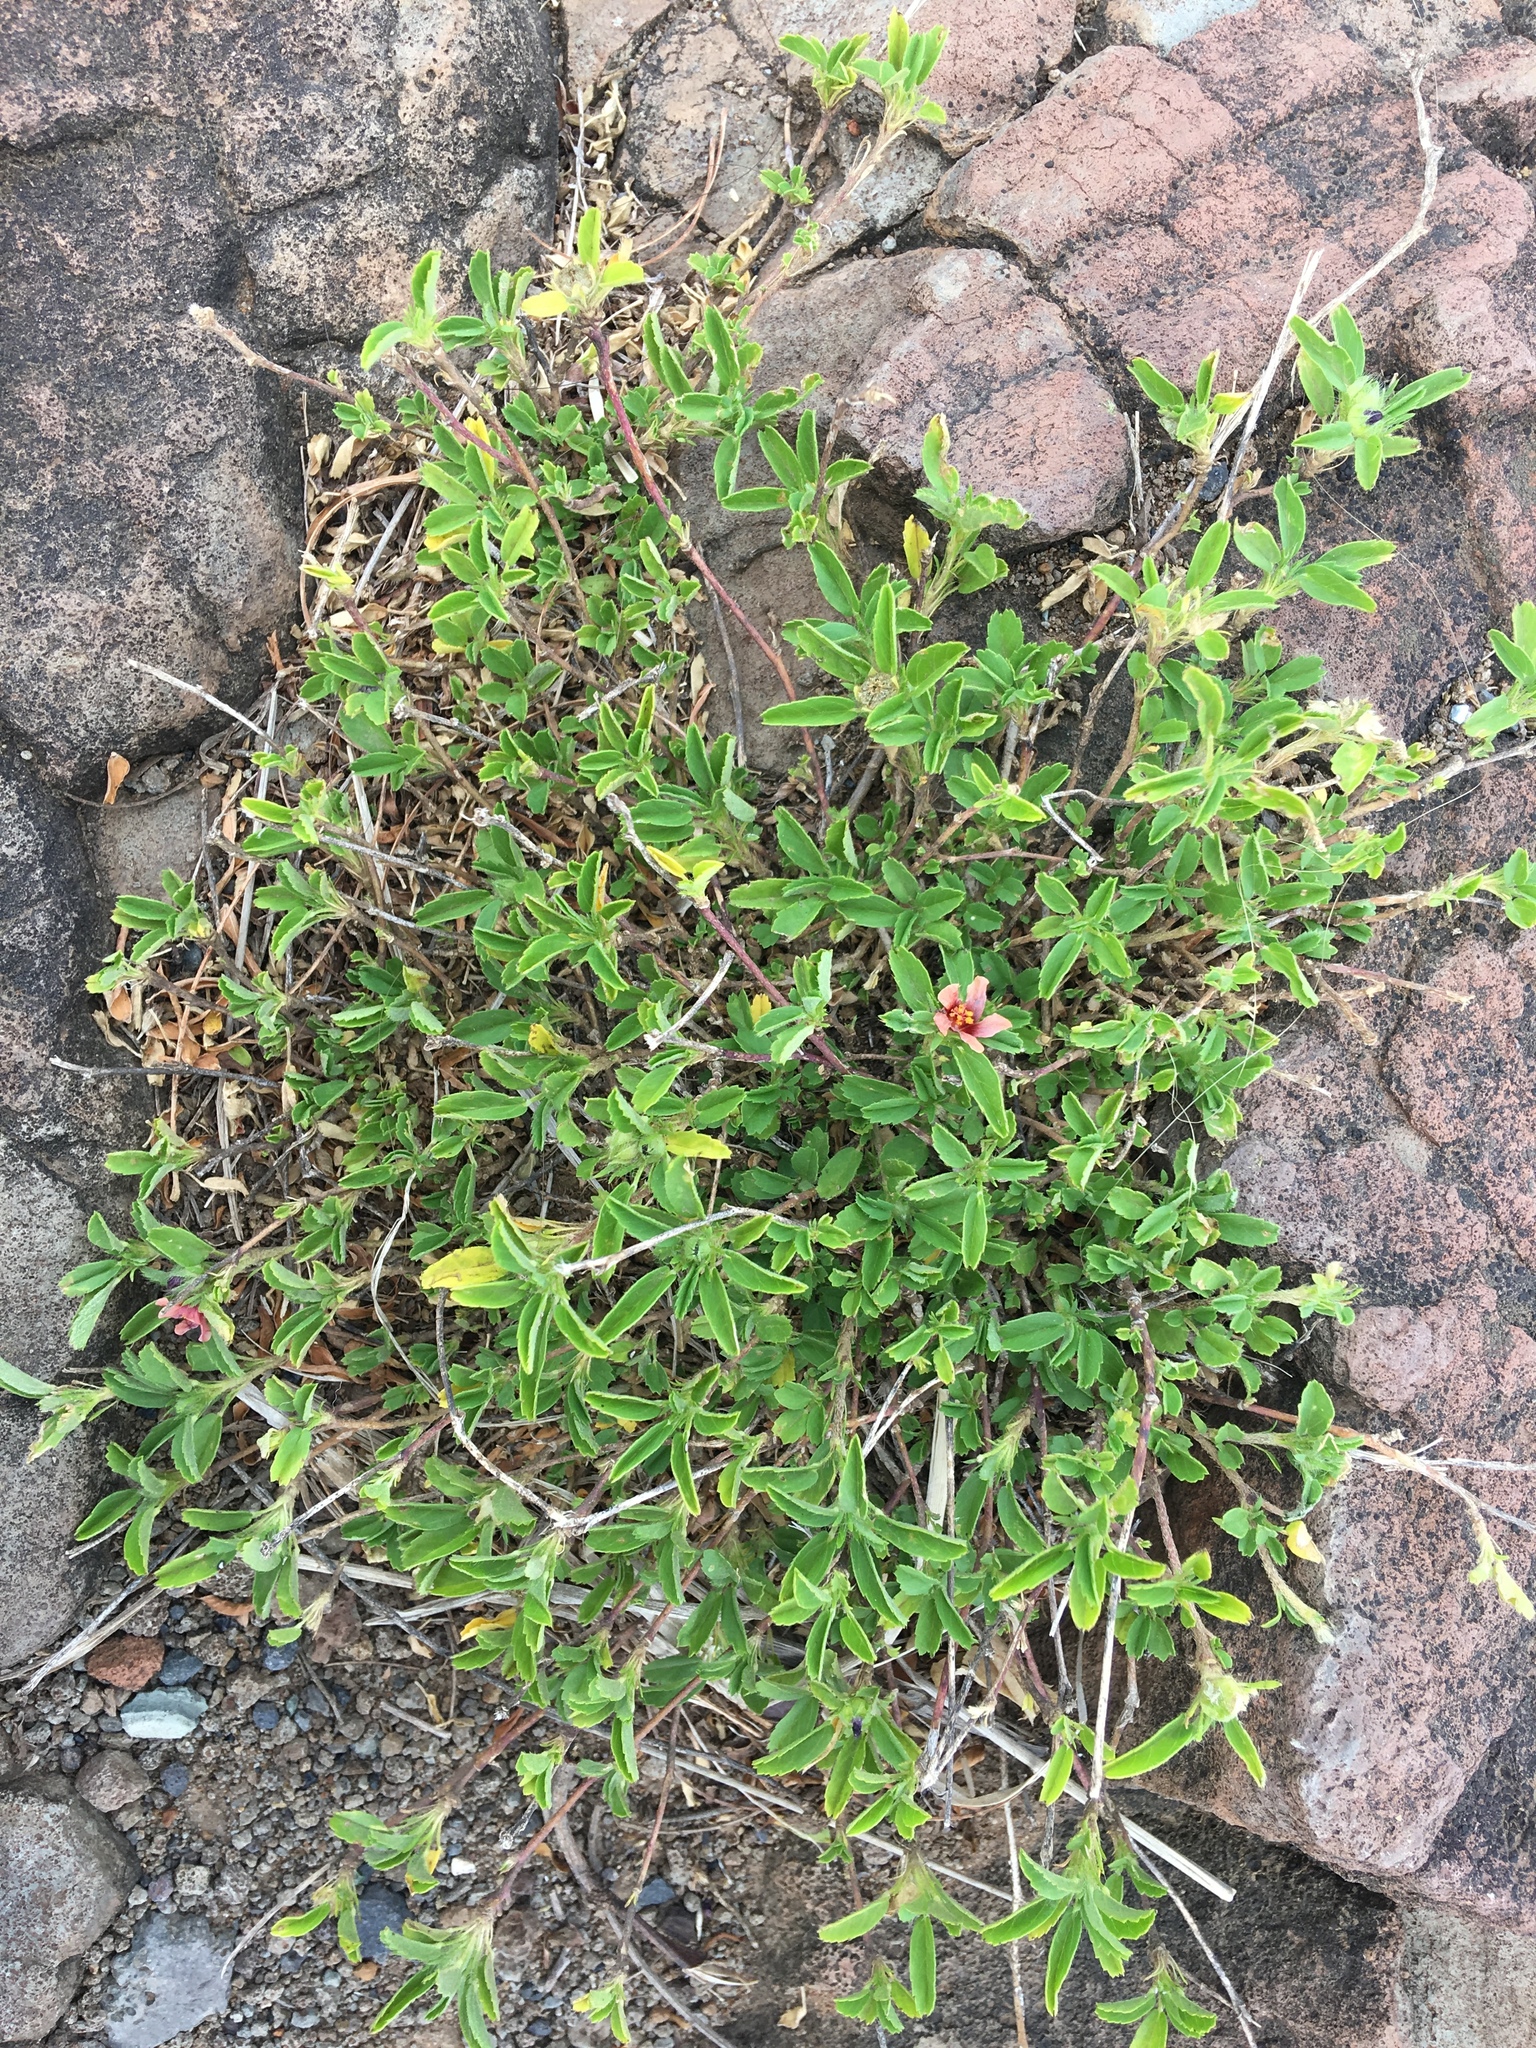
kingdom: Plantae
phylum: Tracheophyta
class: Magnoliopsida
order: Malvales
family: Malvaceae
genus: Sida
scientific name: Sida ciliaris
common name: Bracted fanpetals
